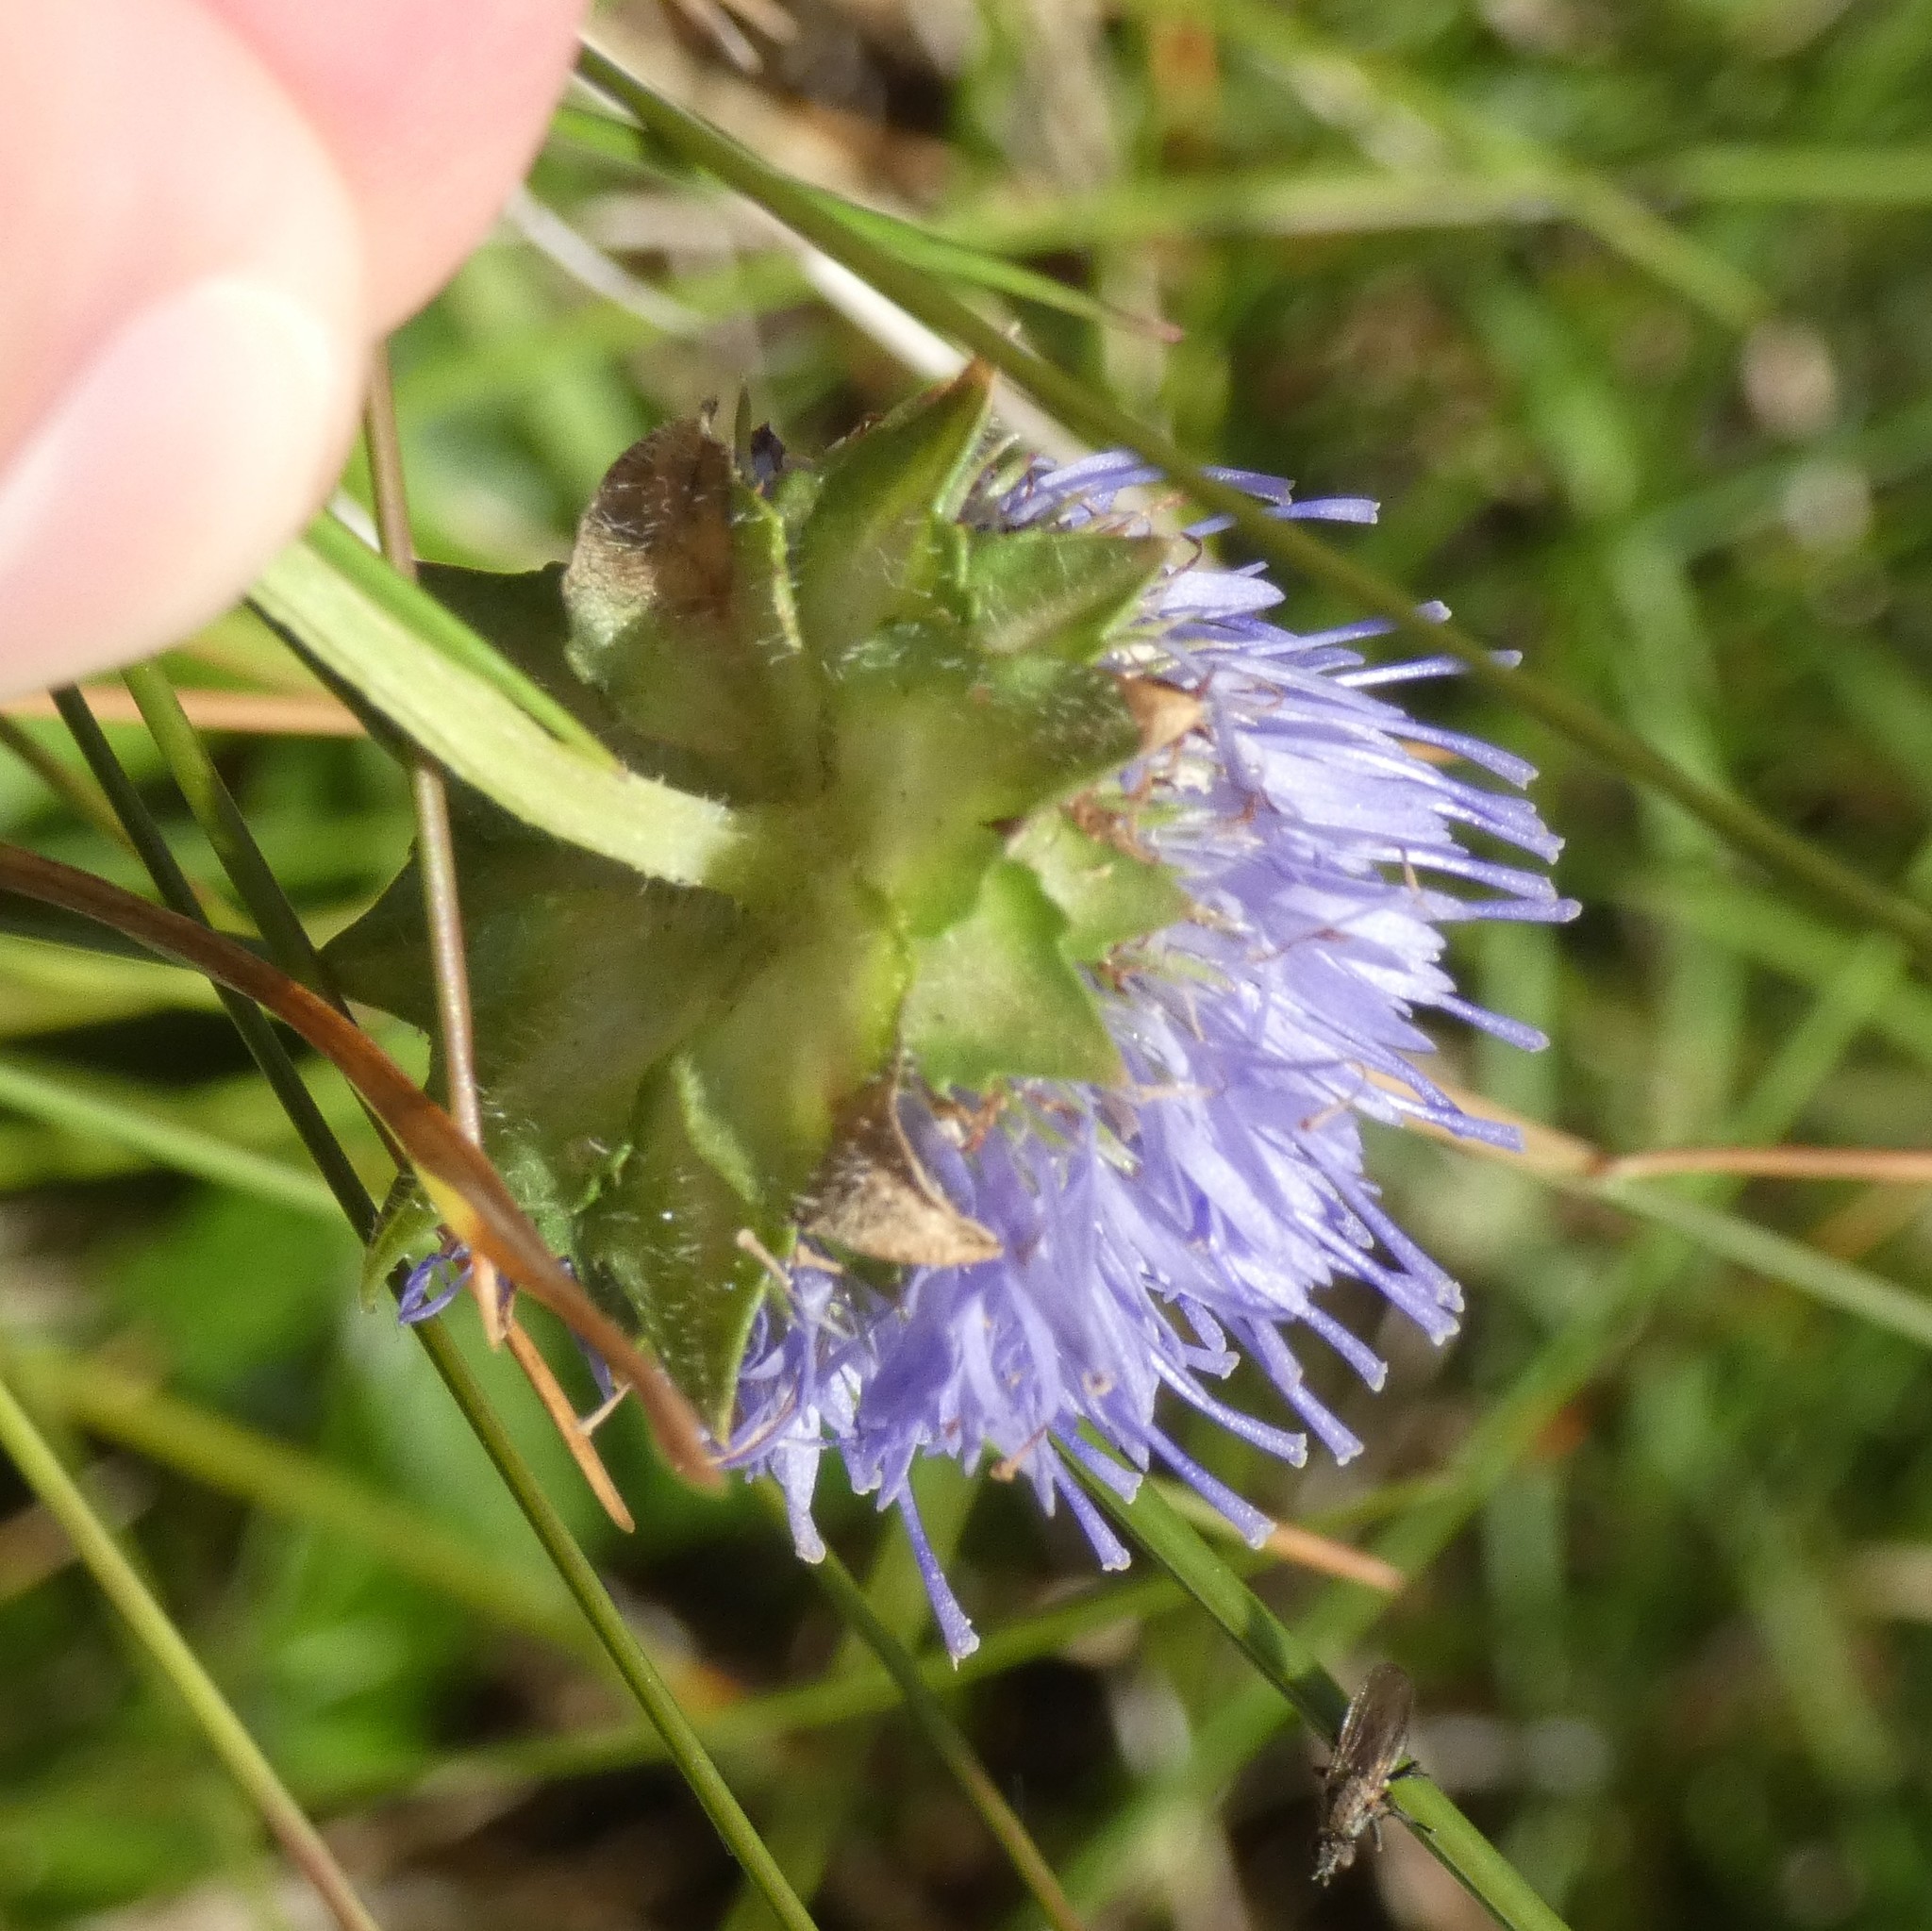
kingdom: Plantae
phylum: Tracheophyta
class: Magnoliopsida
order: Asterales
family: Campanulaceae
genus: Jasione
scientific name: Jasione montana
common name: Sheep's-bit
